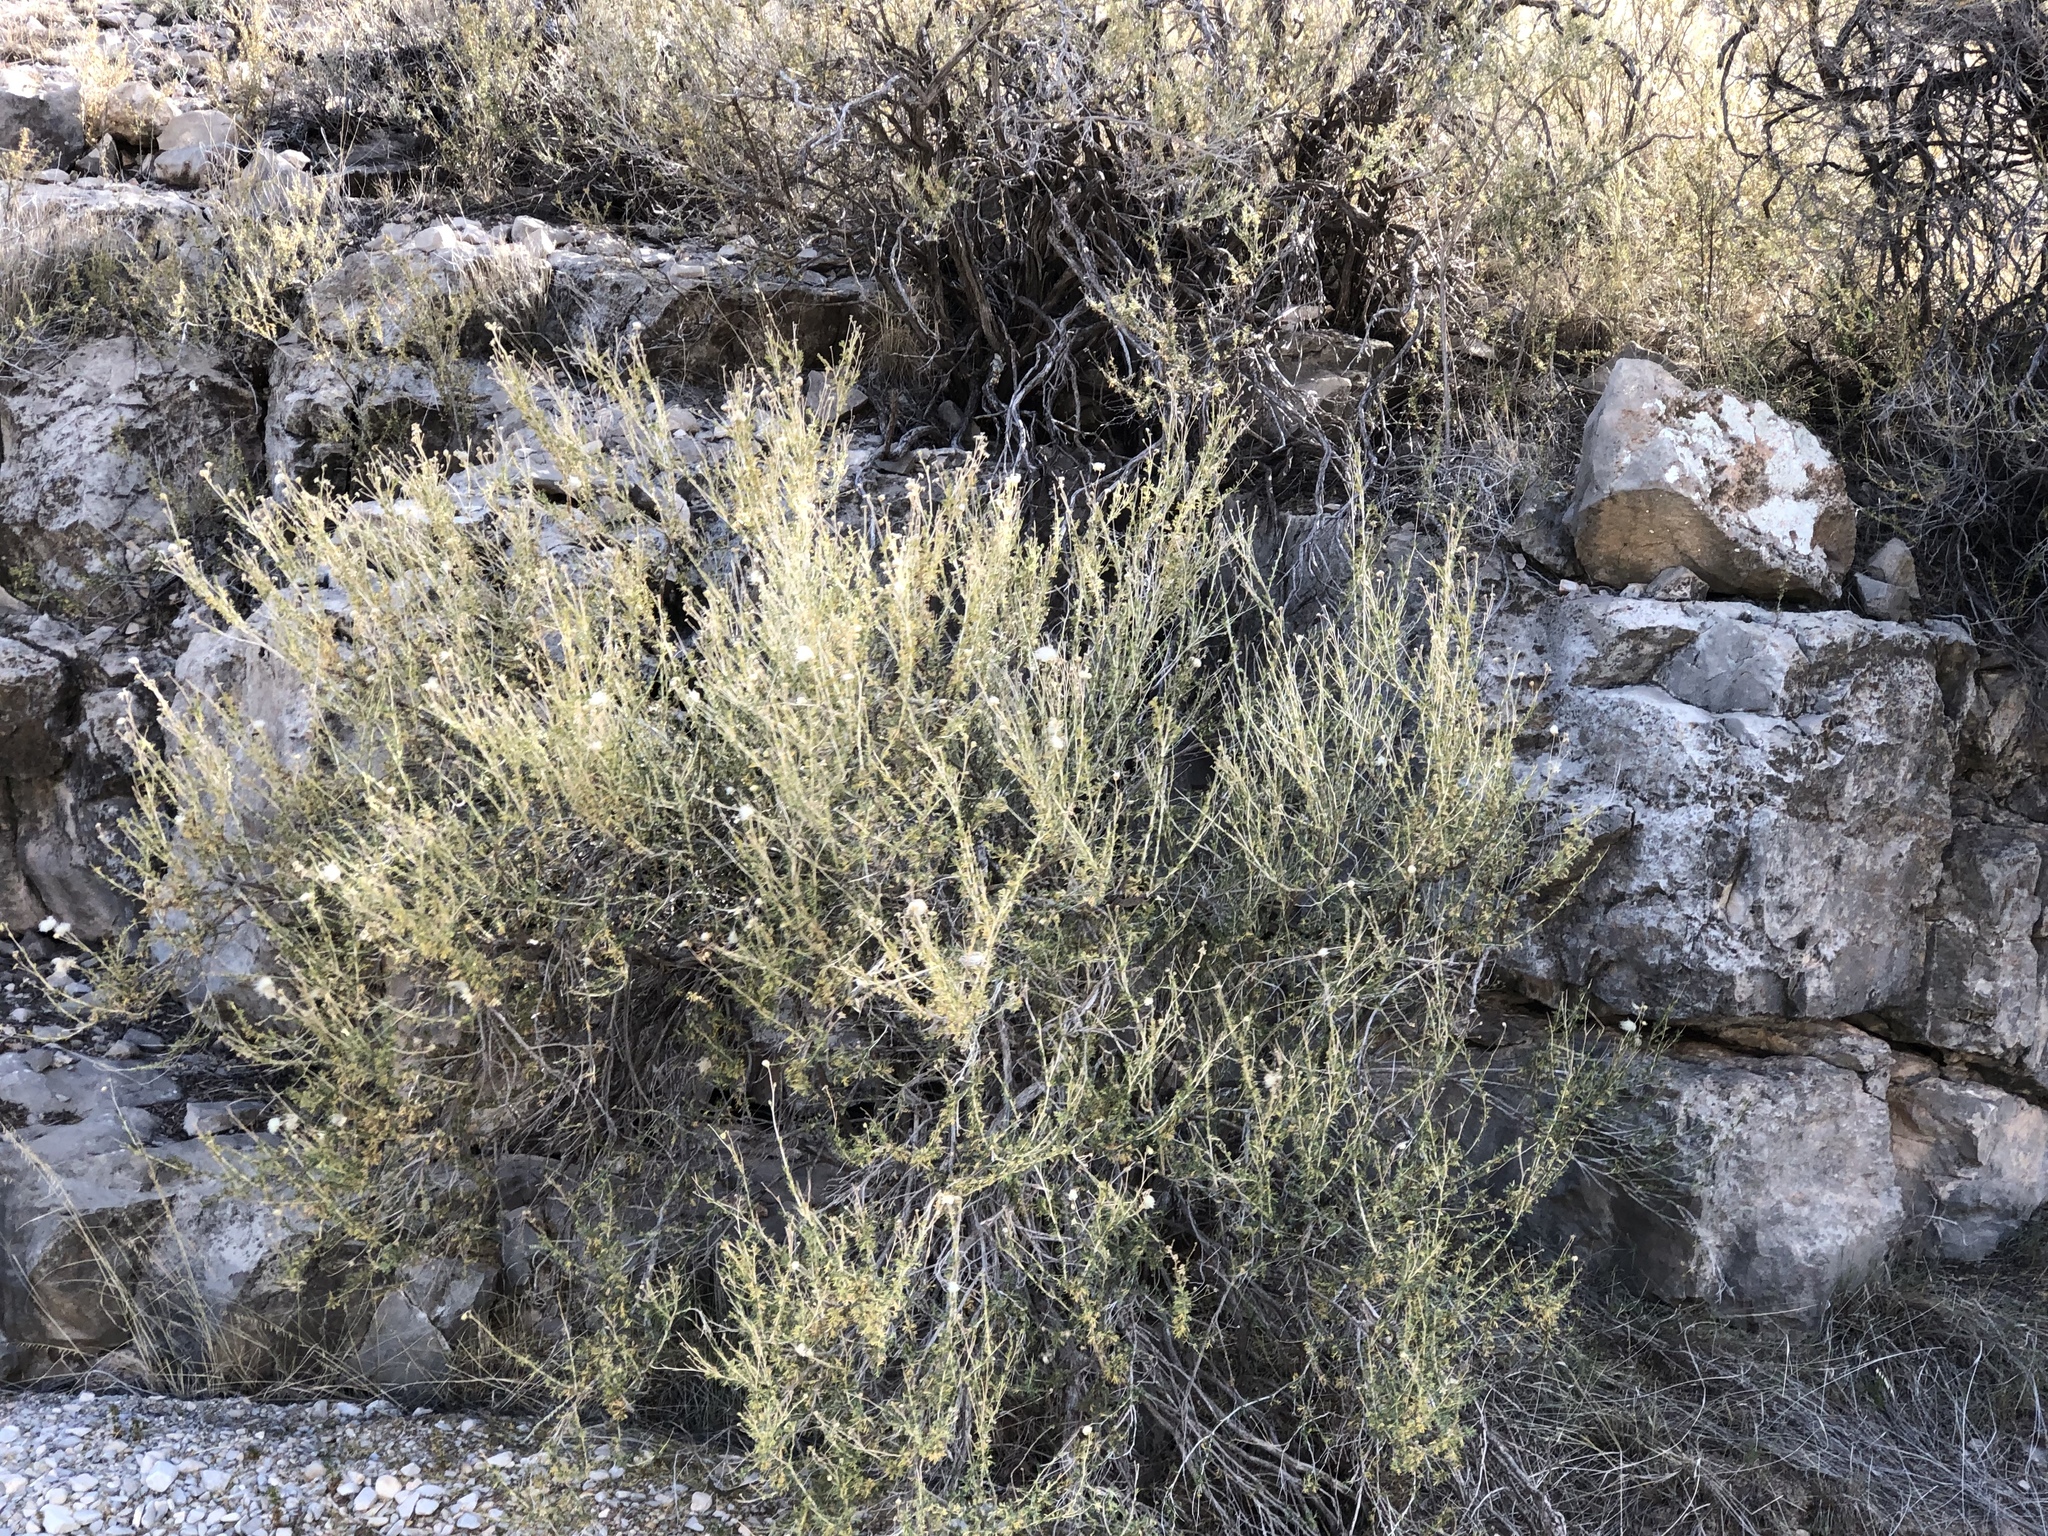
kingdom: Plantae
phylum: Tracheophyta
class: Magnoliopsida
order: Rosales
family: Rosaceae
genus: Fallugia
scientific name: Fallugia paradoxa
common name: Apache-plume
